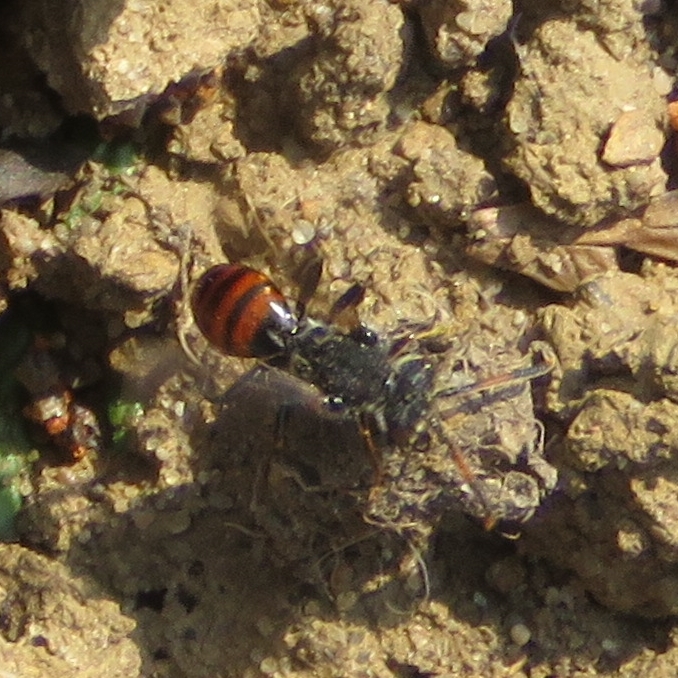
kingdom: Animalia
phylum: Arthropoda
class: Insecta
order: Hymenoptera
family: Apidae
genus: Nomada
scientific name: Nomada fabriciana
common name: Fabricius' nomad bee
